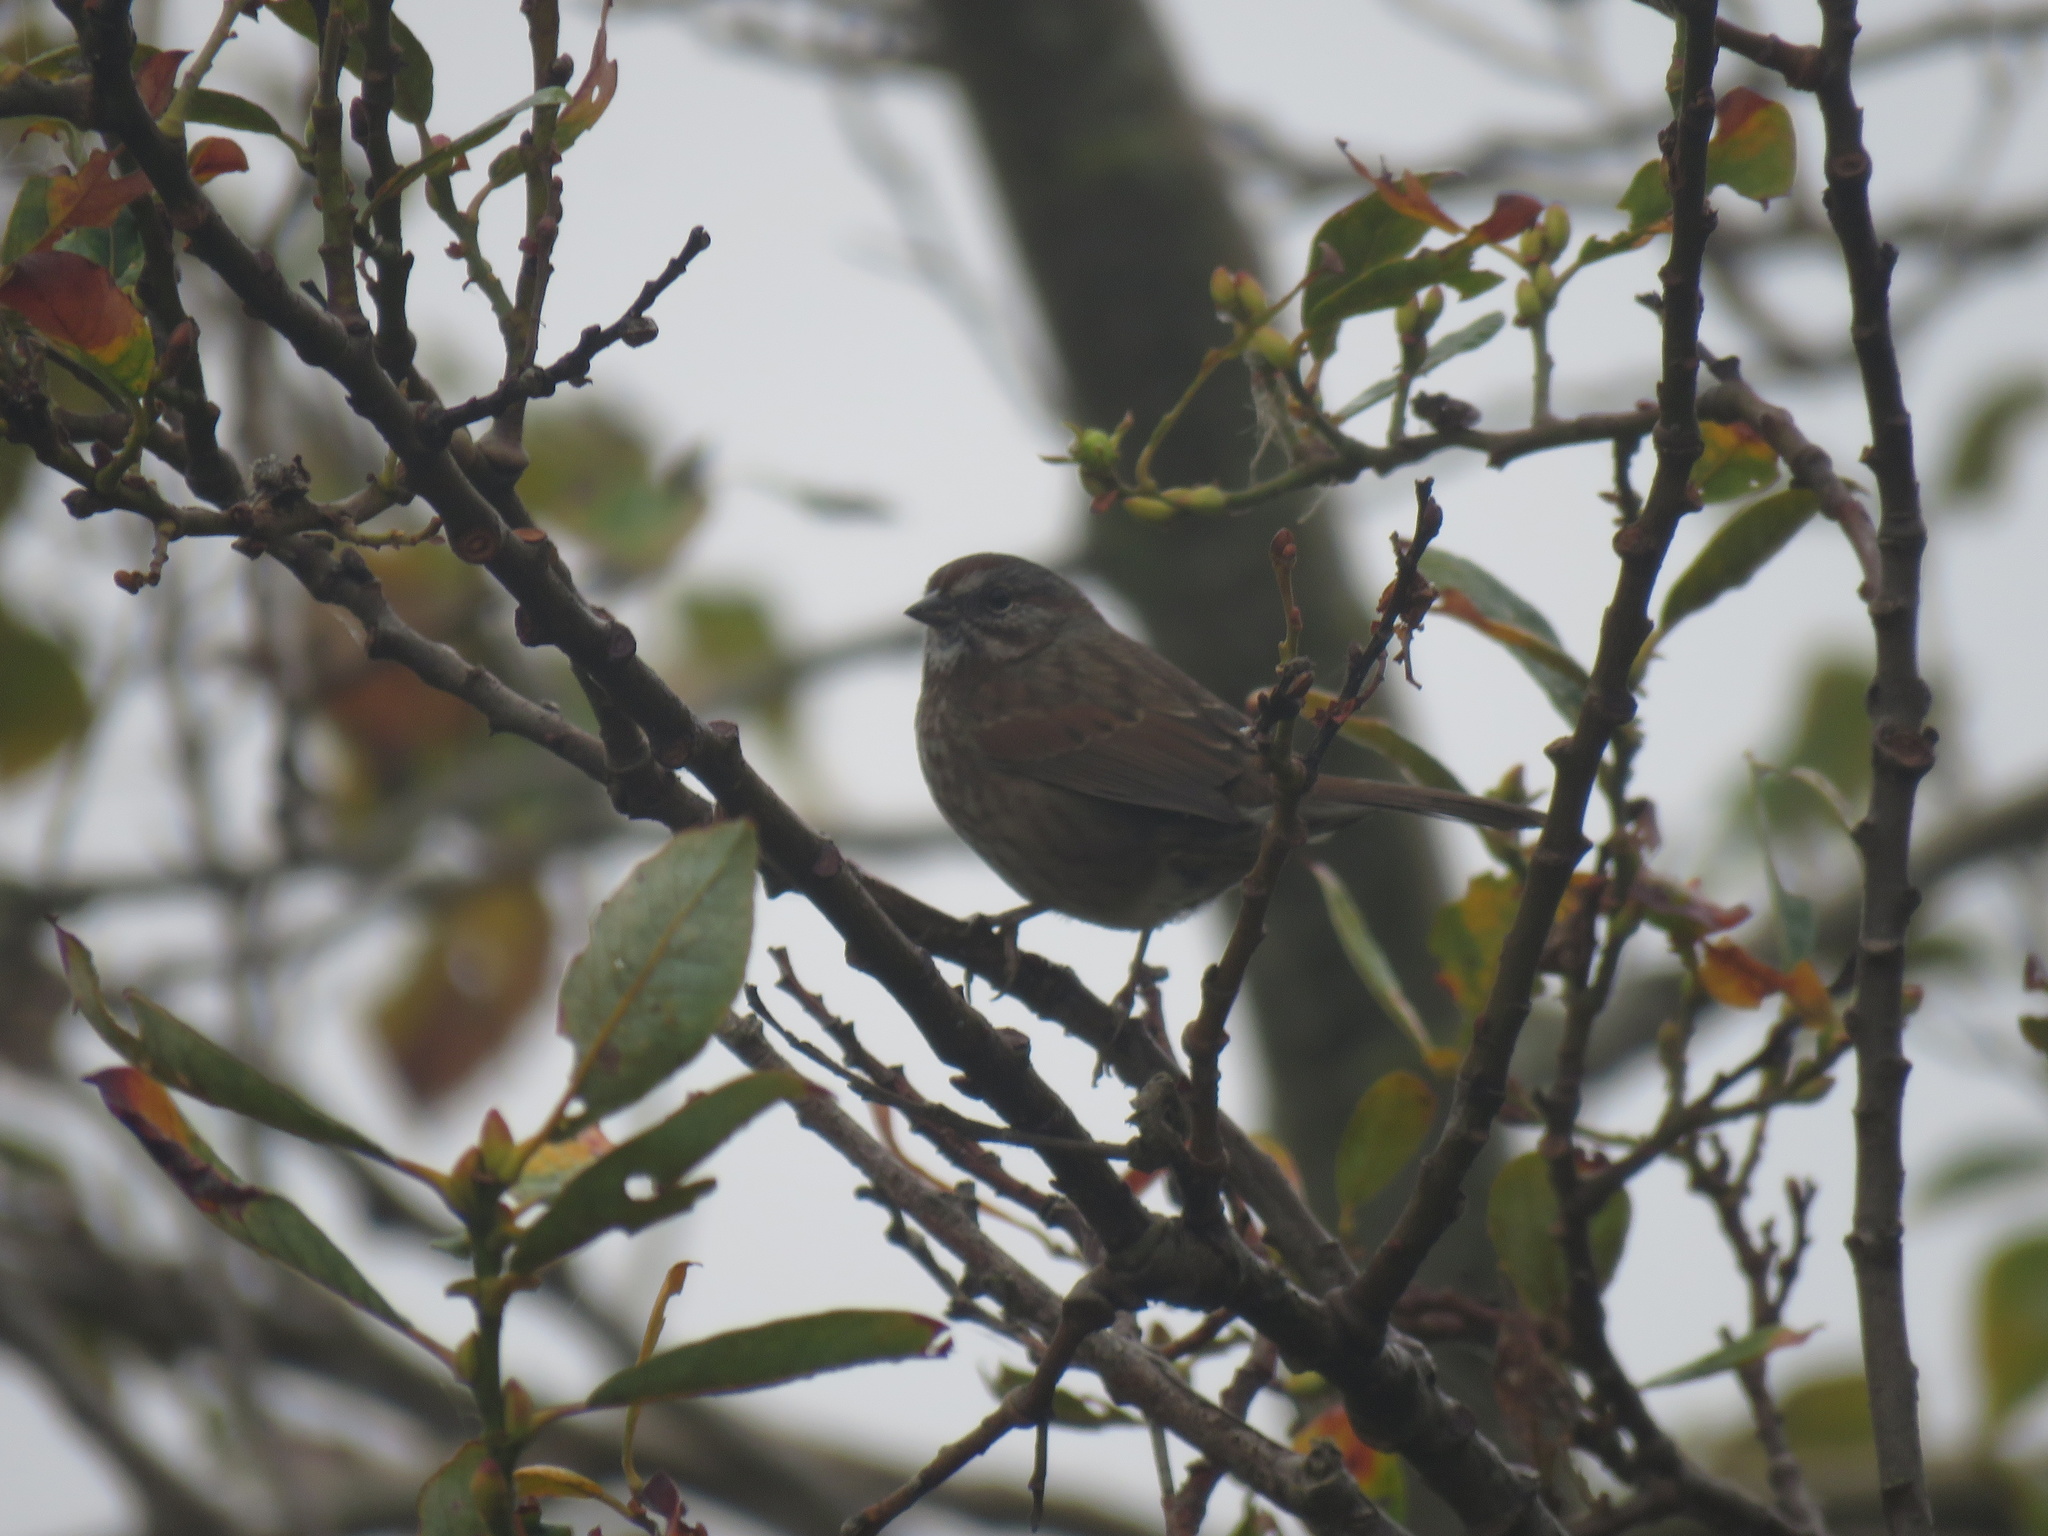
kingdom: Animalia
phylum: Chordata
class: Aves
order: Passeriformes
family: Passerellidae
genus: Melospiza
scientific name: Melospiza melodia
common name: Song sparrow
